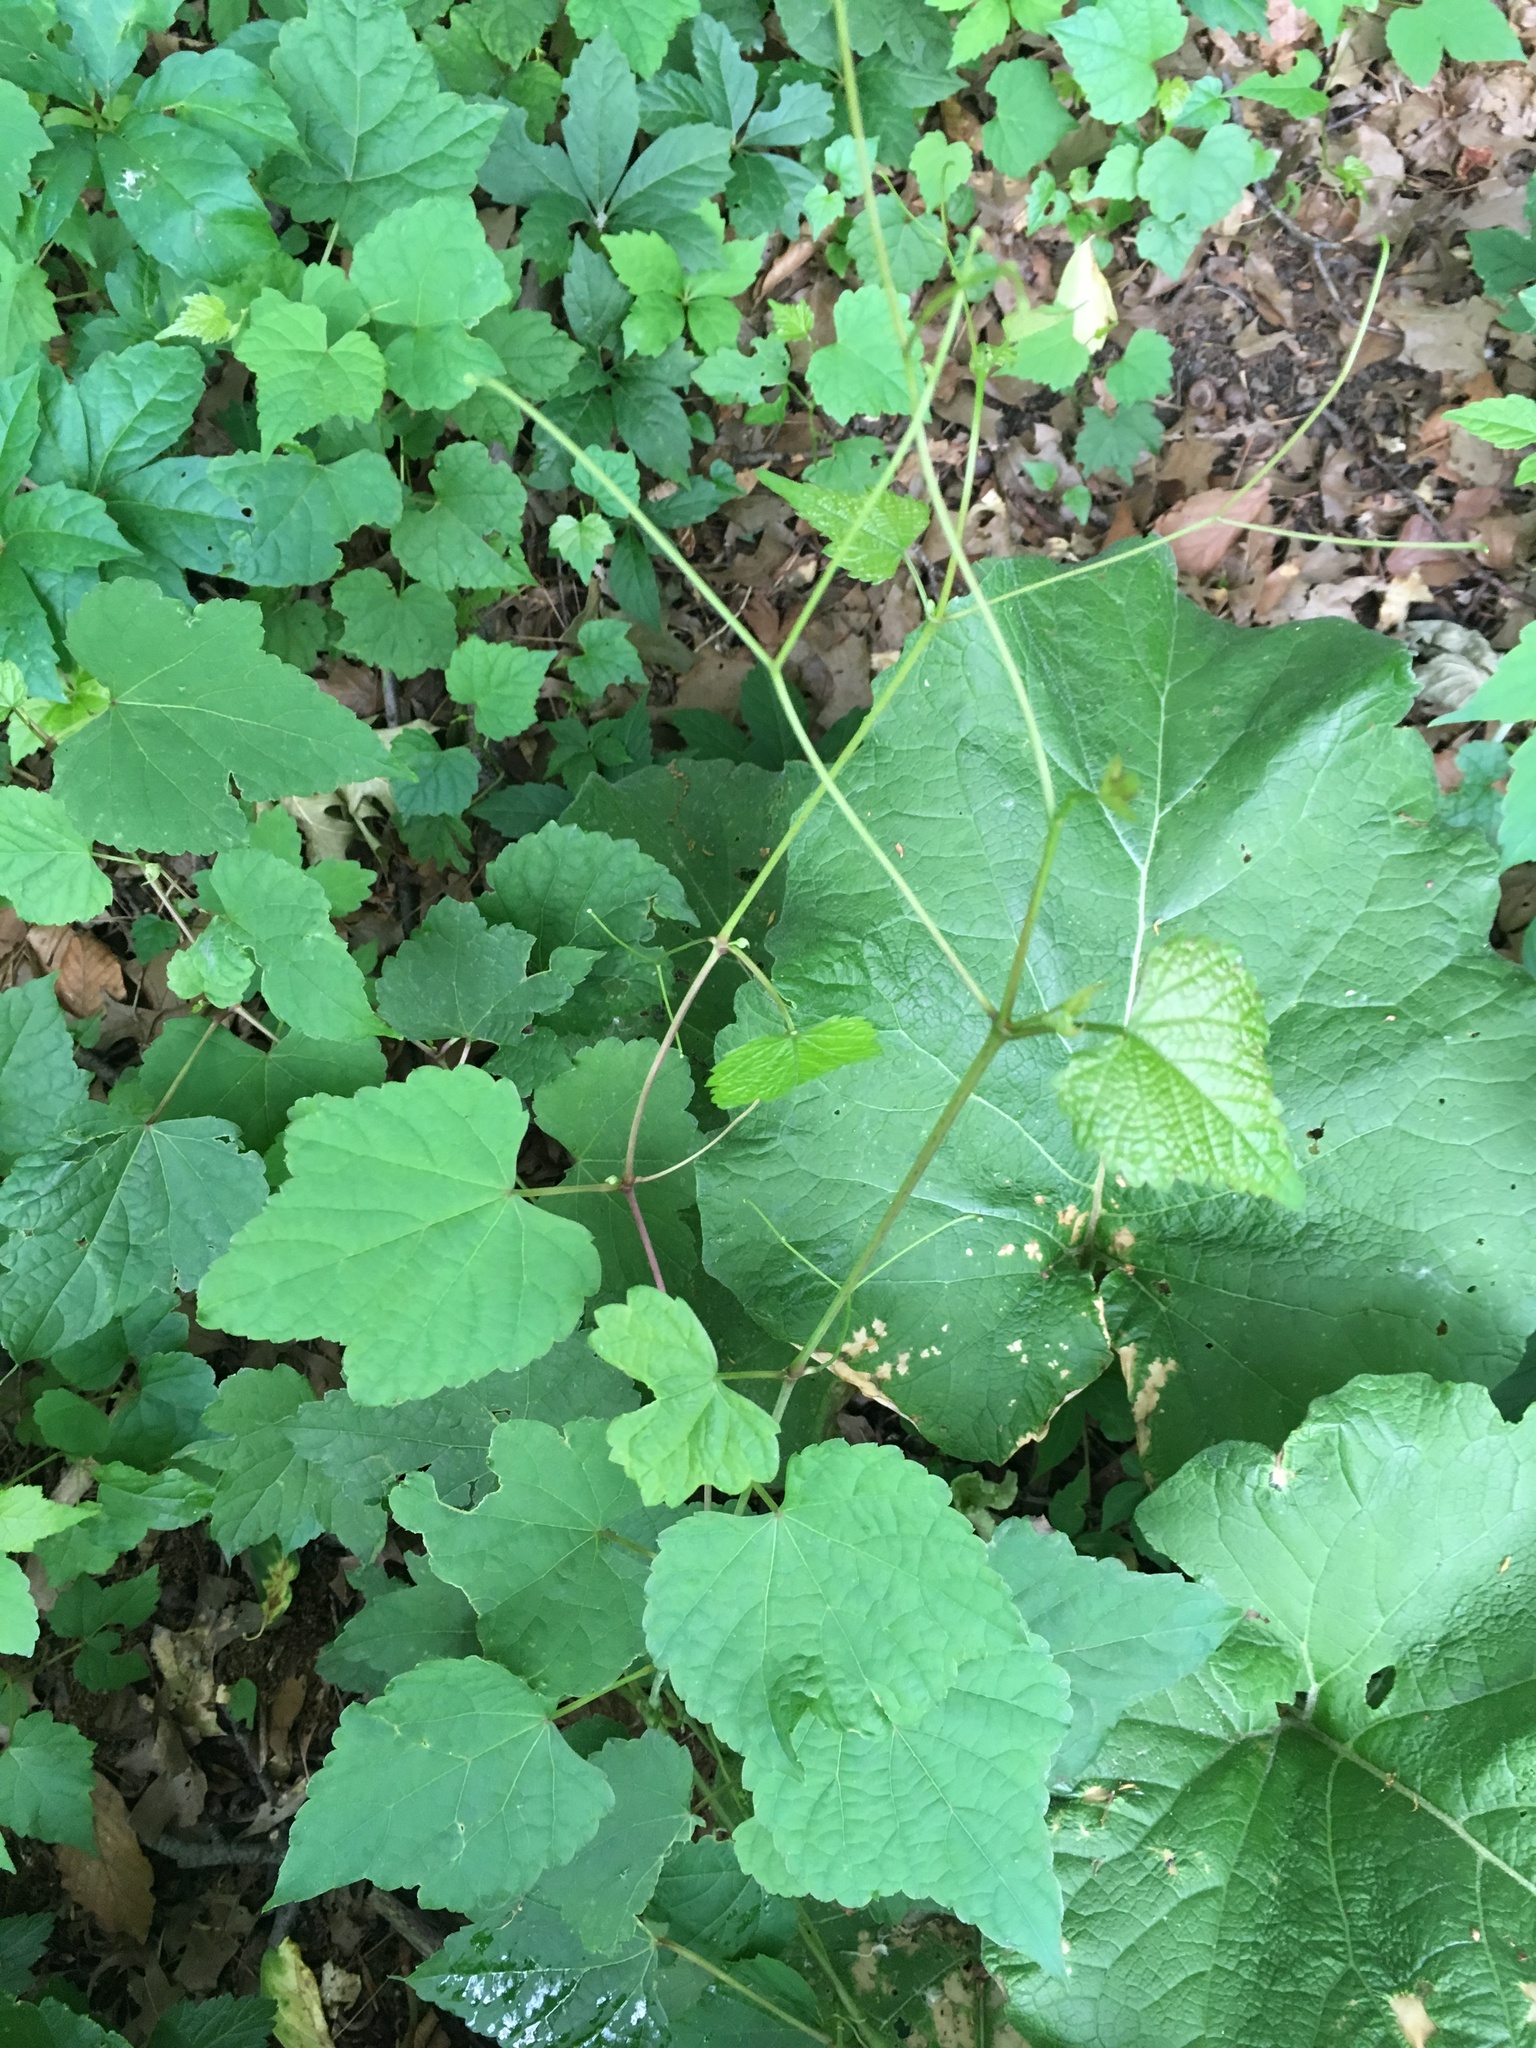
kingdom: Plantae
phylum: Tracheophyta
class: Magnoliopsida
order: Vitales
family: Vitaceae
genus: Ampelopsis
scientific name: Ampelopsis glandulosa
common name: Amur peppervine
